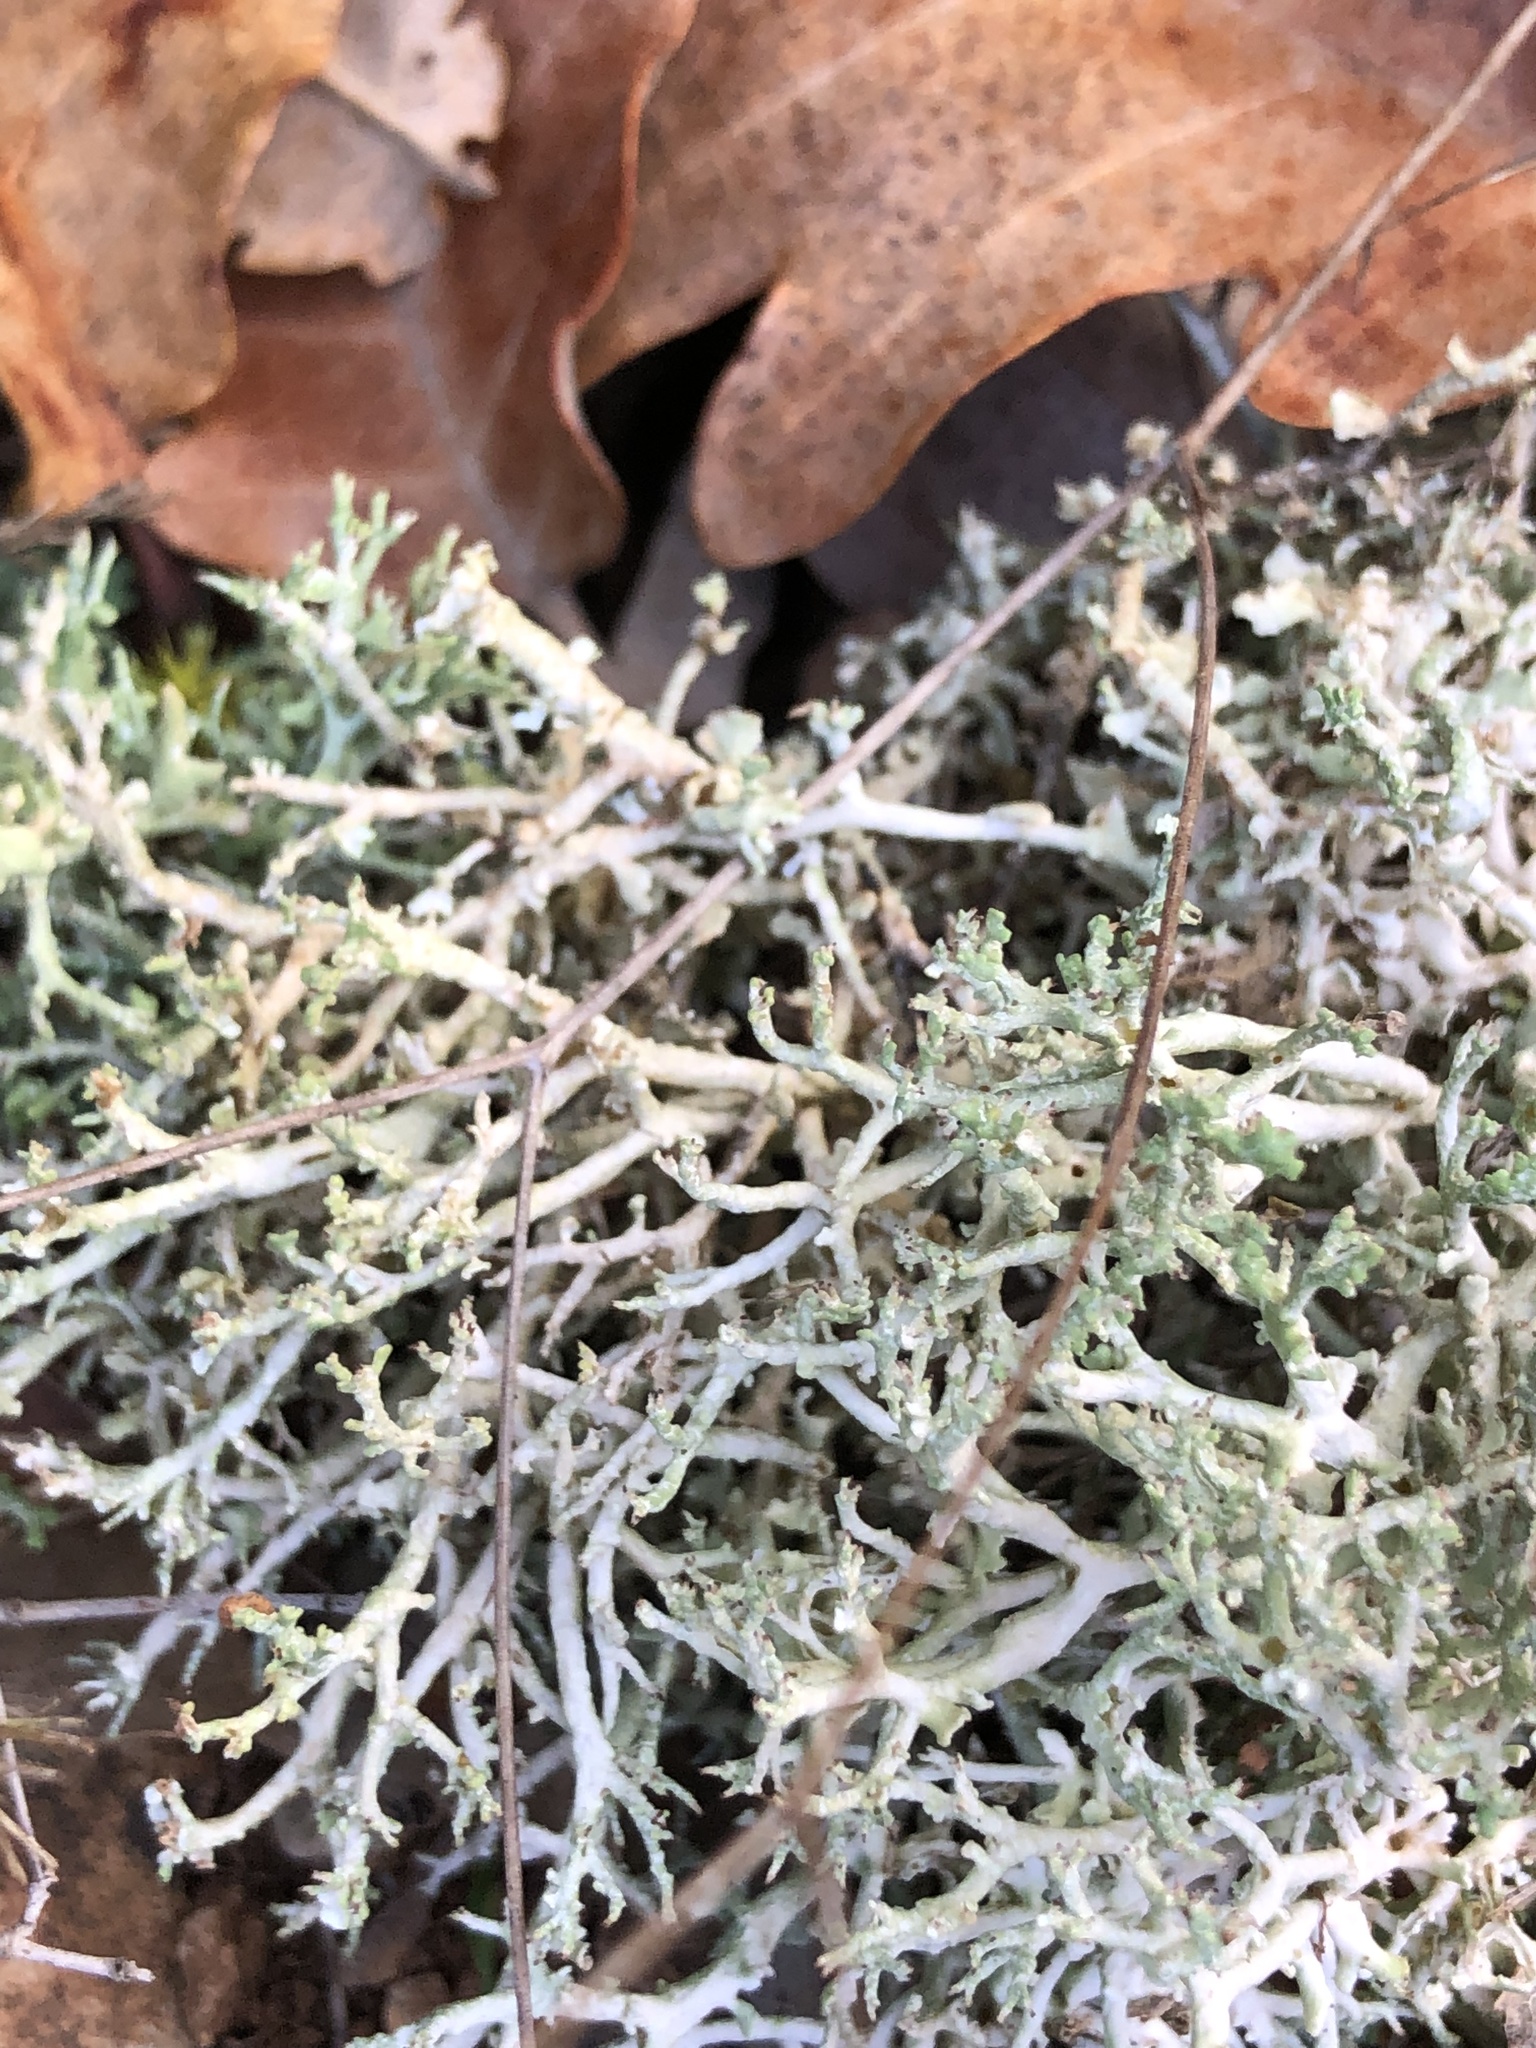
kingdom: Fungi
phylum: Ascomycota
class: Lecanoromycetes
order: Lecanorales
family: Cladoniaceae
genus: Cladonia
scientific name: Cladonia furcata
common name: Many-forked cladonia
